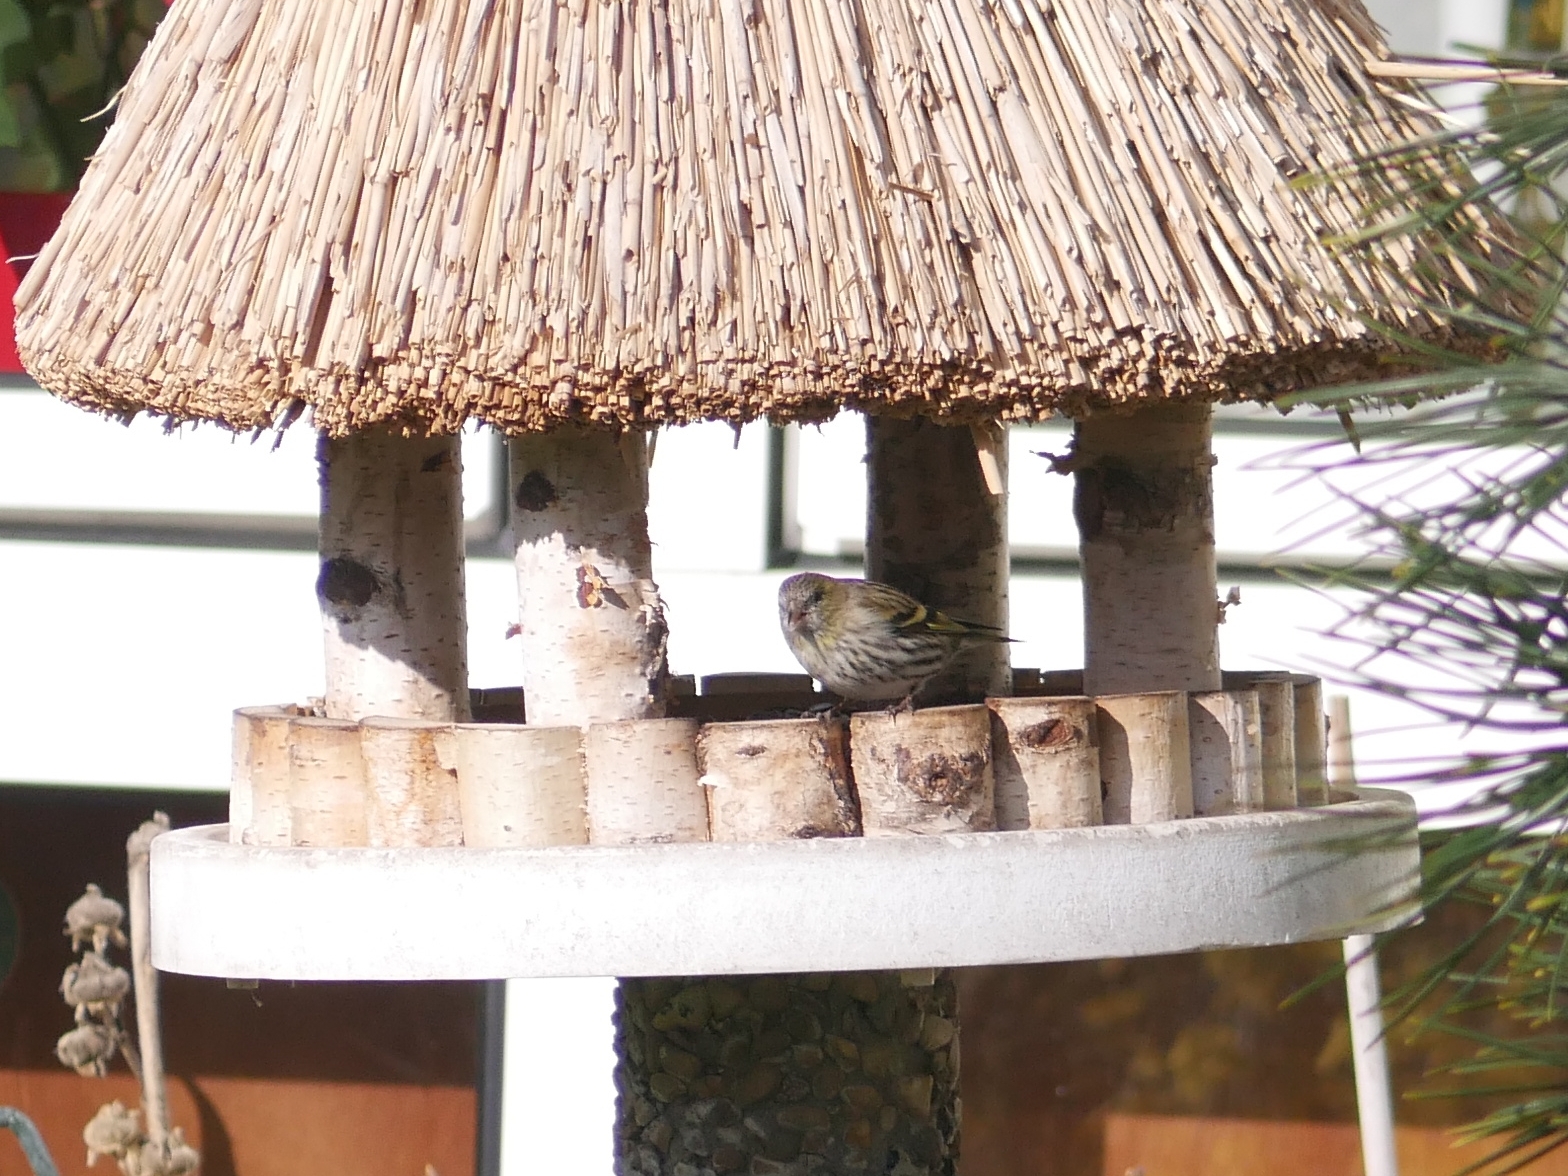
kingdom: Animalia
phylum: Chordata
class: Aves
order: Passeriformes
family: Fringillidae
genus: Spinus
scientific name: Spinus spinus
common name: Eurasian siskin
